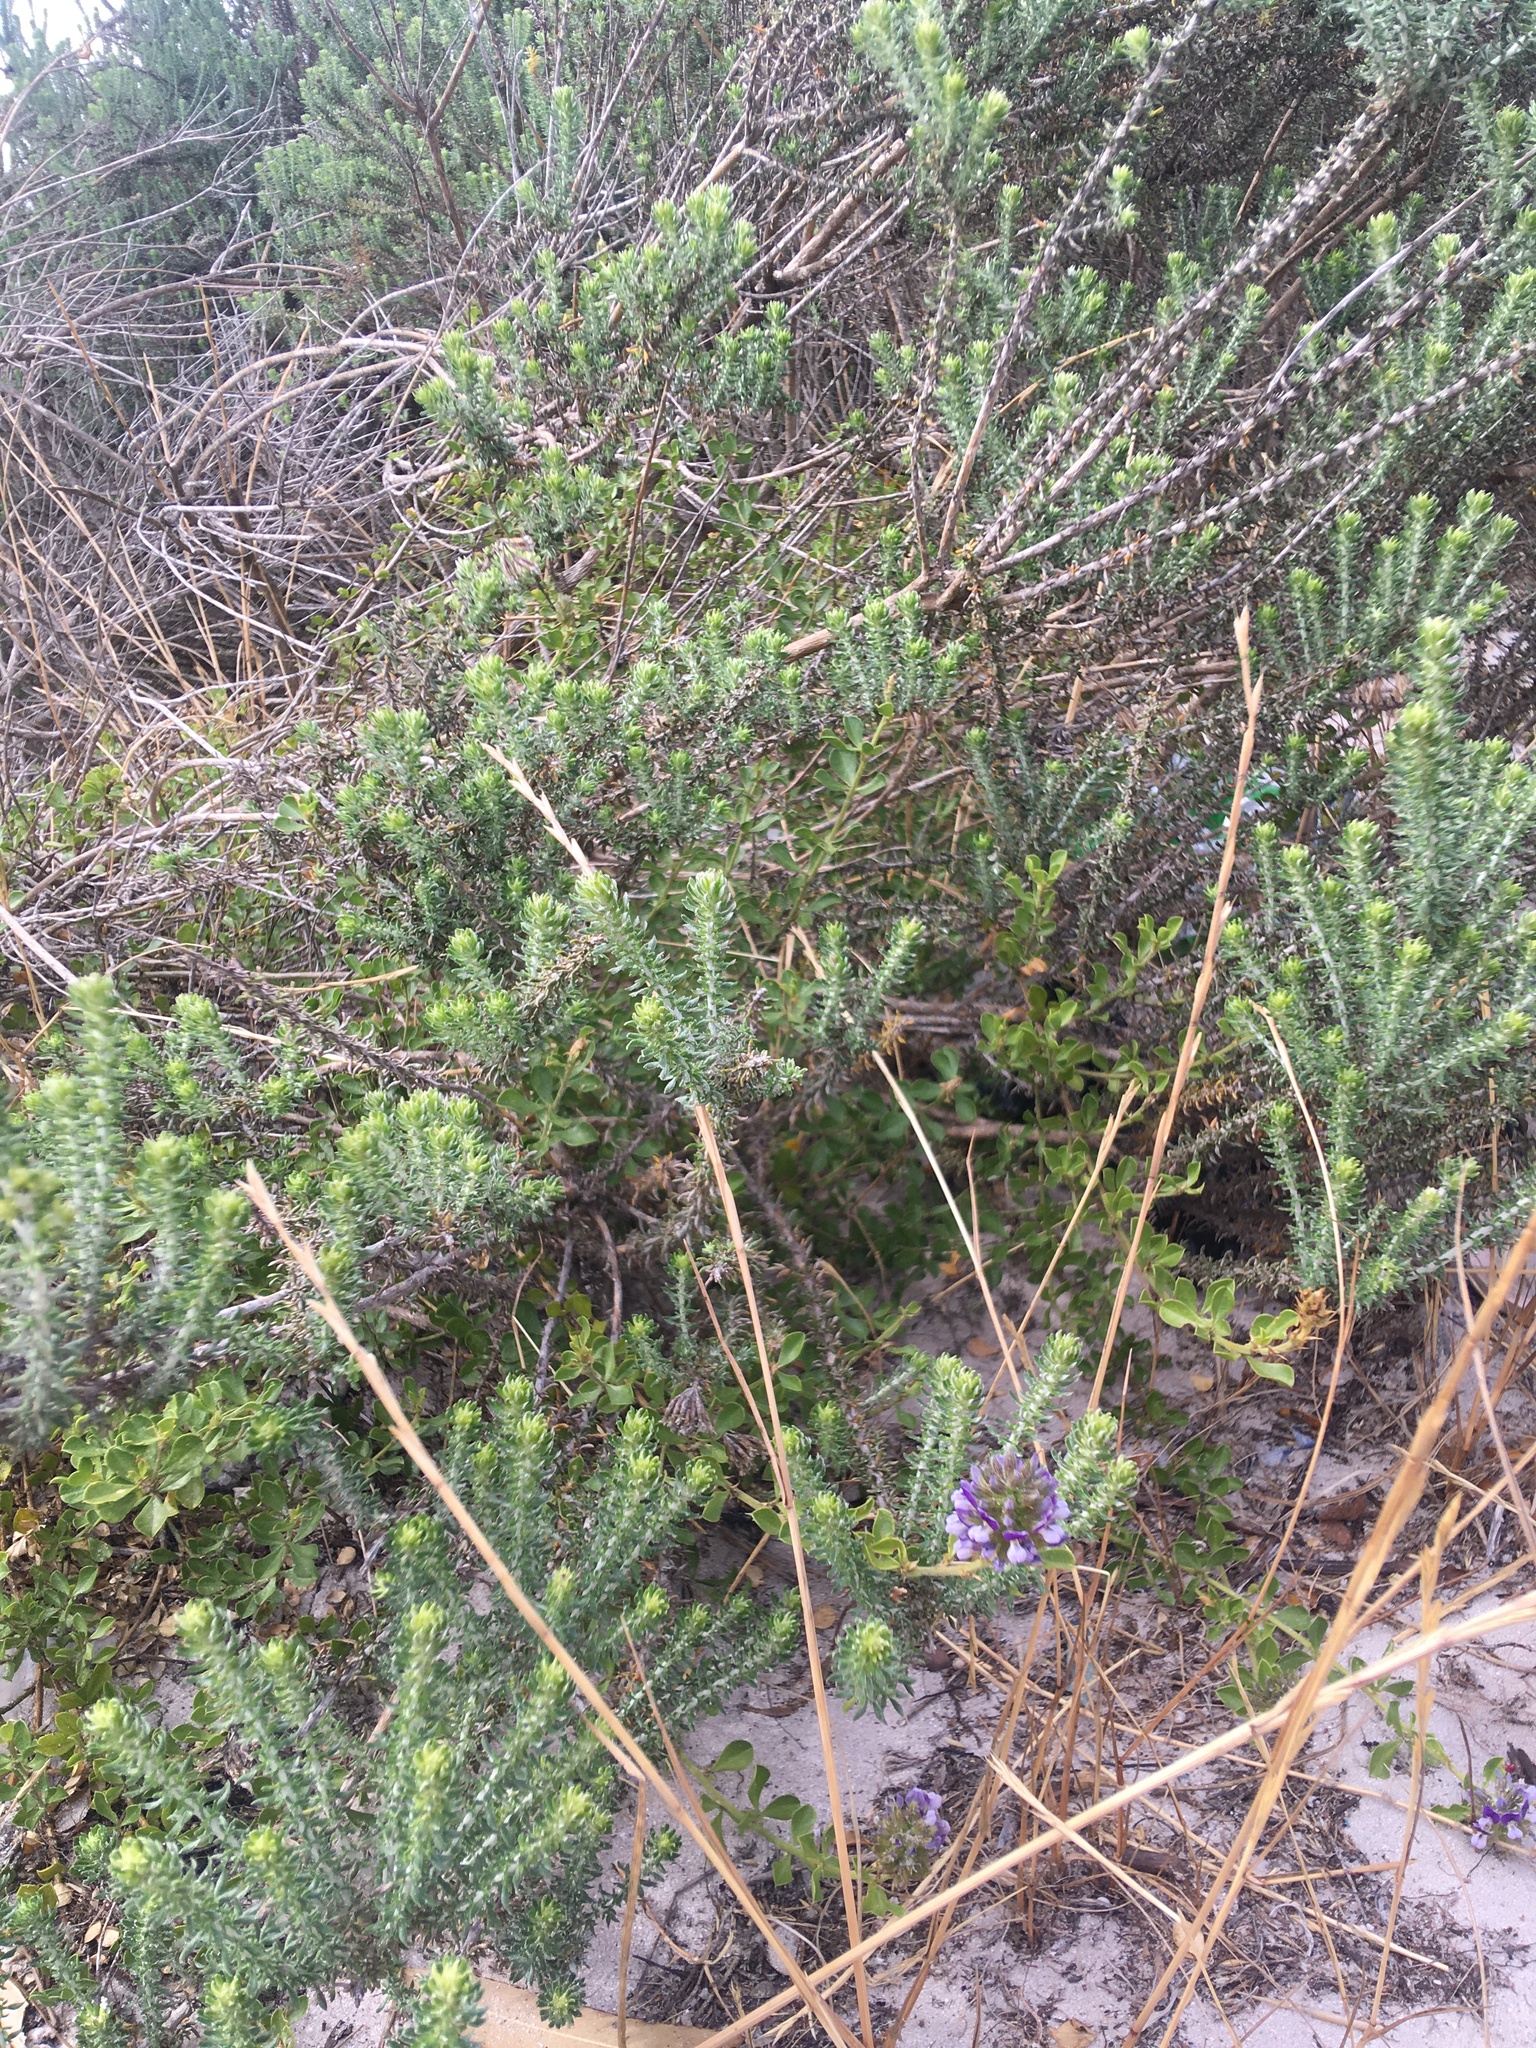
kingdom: Plantae
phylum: Tracheophyta
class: Magnoliopsida
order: Fabales
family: Fabaceae
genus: Psoralea
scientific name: Psoralea fruticans
